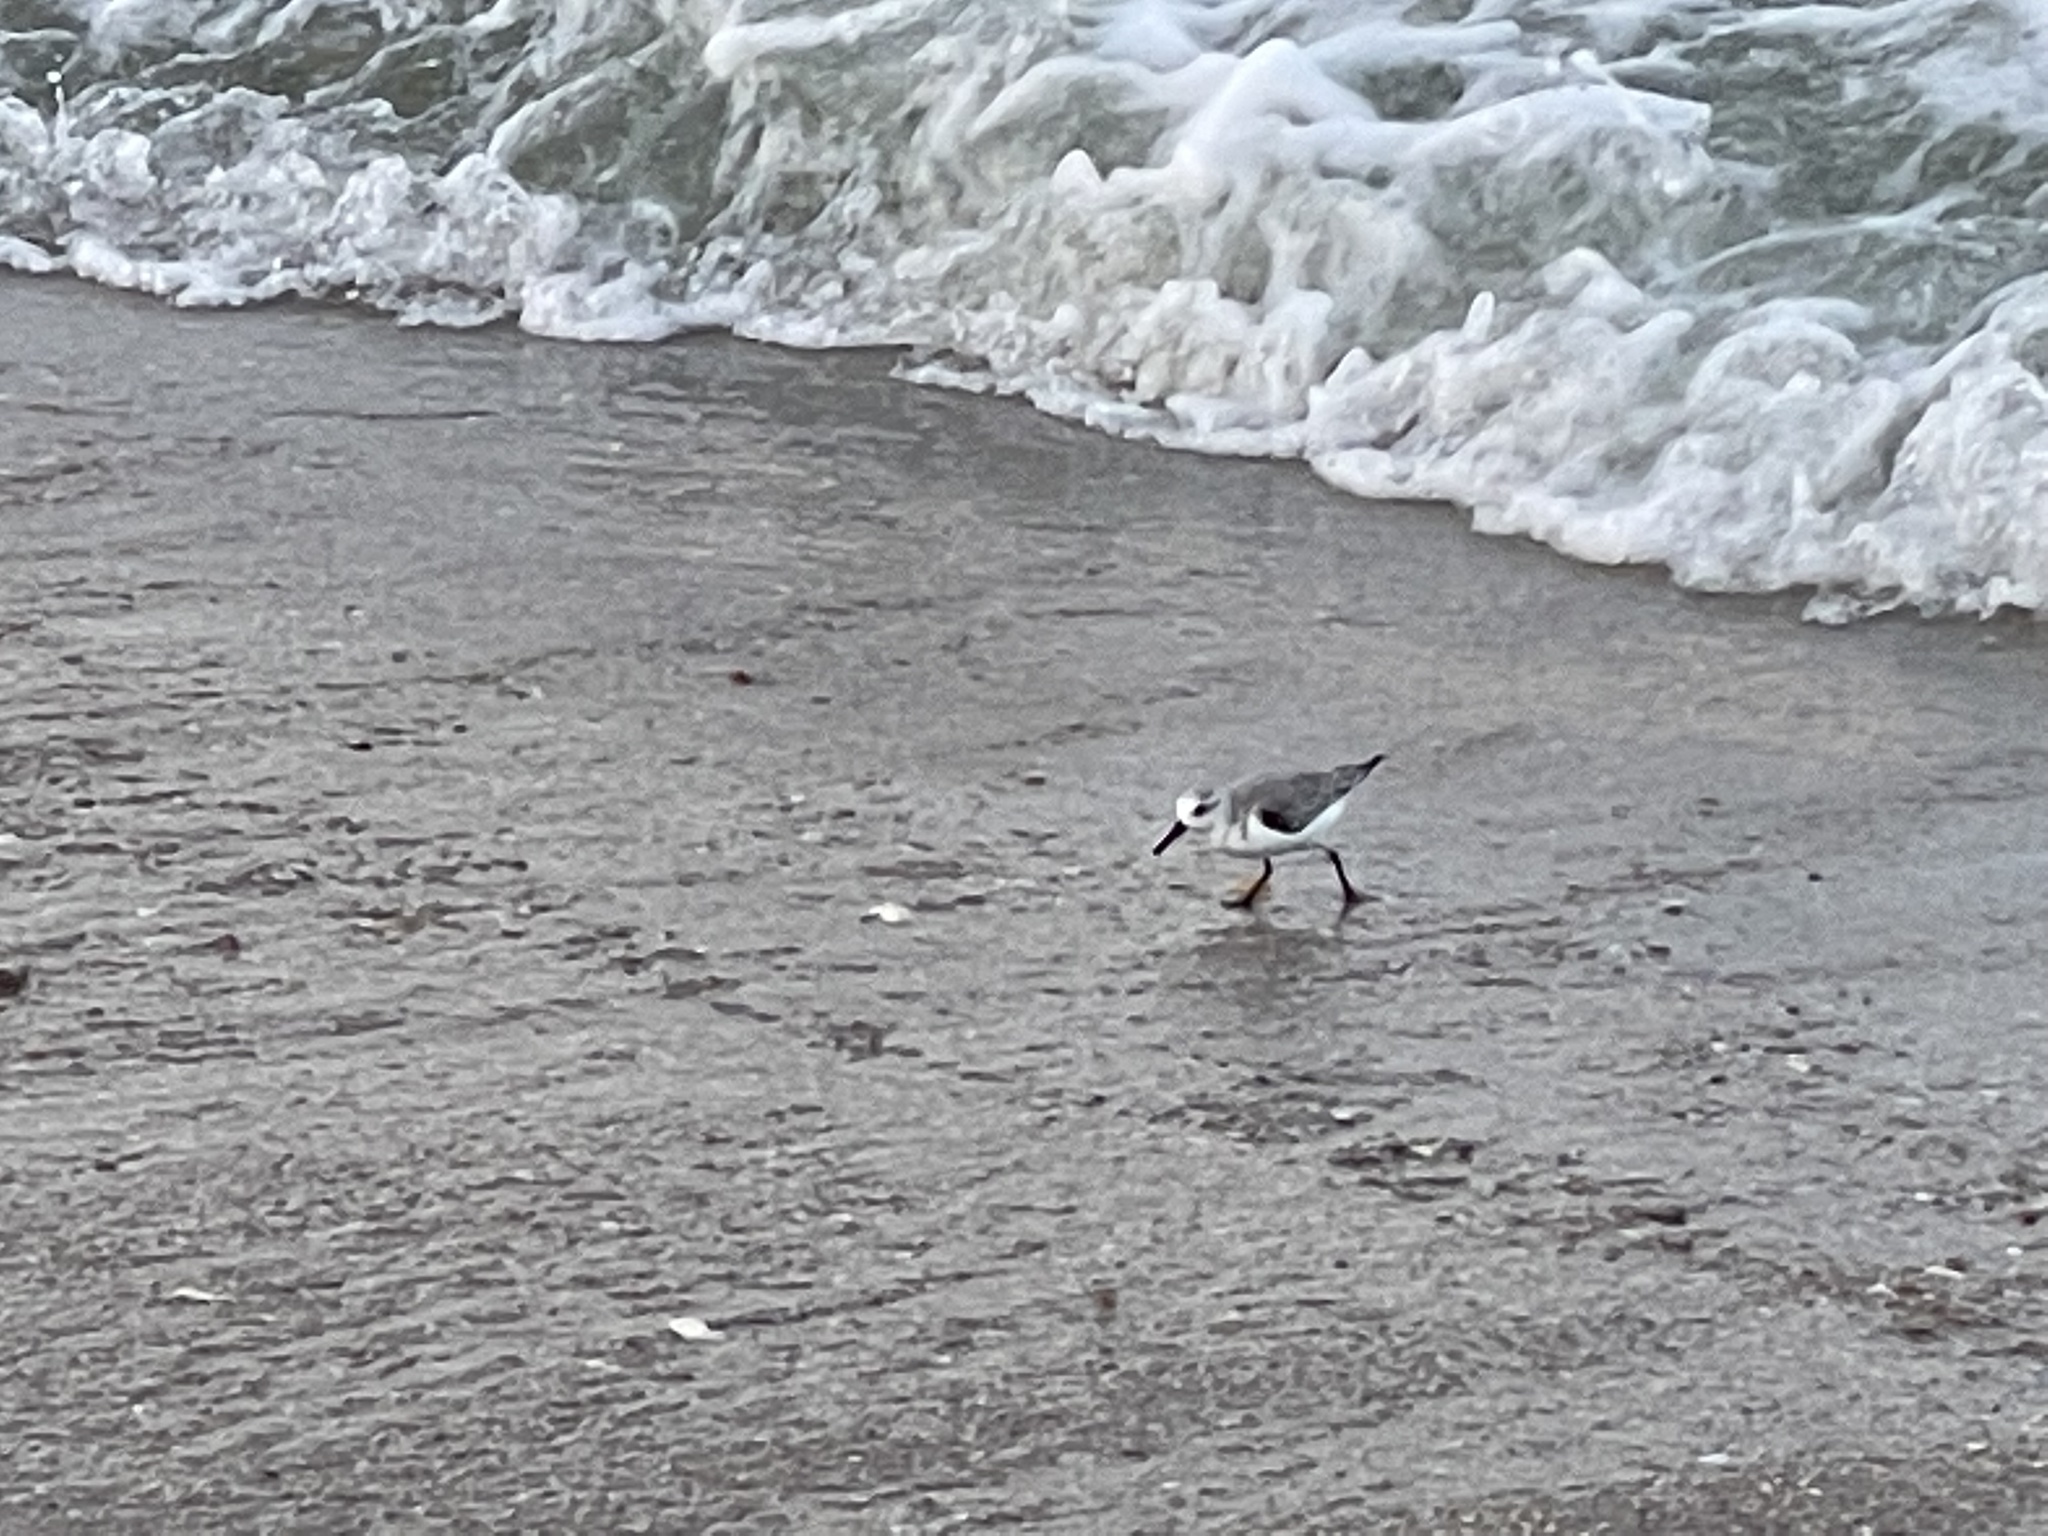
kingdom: Animalia
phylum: Chordata
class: Aves
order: Charadriiformes
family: Scolopacidae
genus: Calidris
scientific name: Calidris alba
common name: Sanderling
